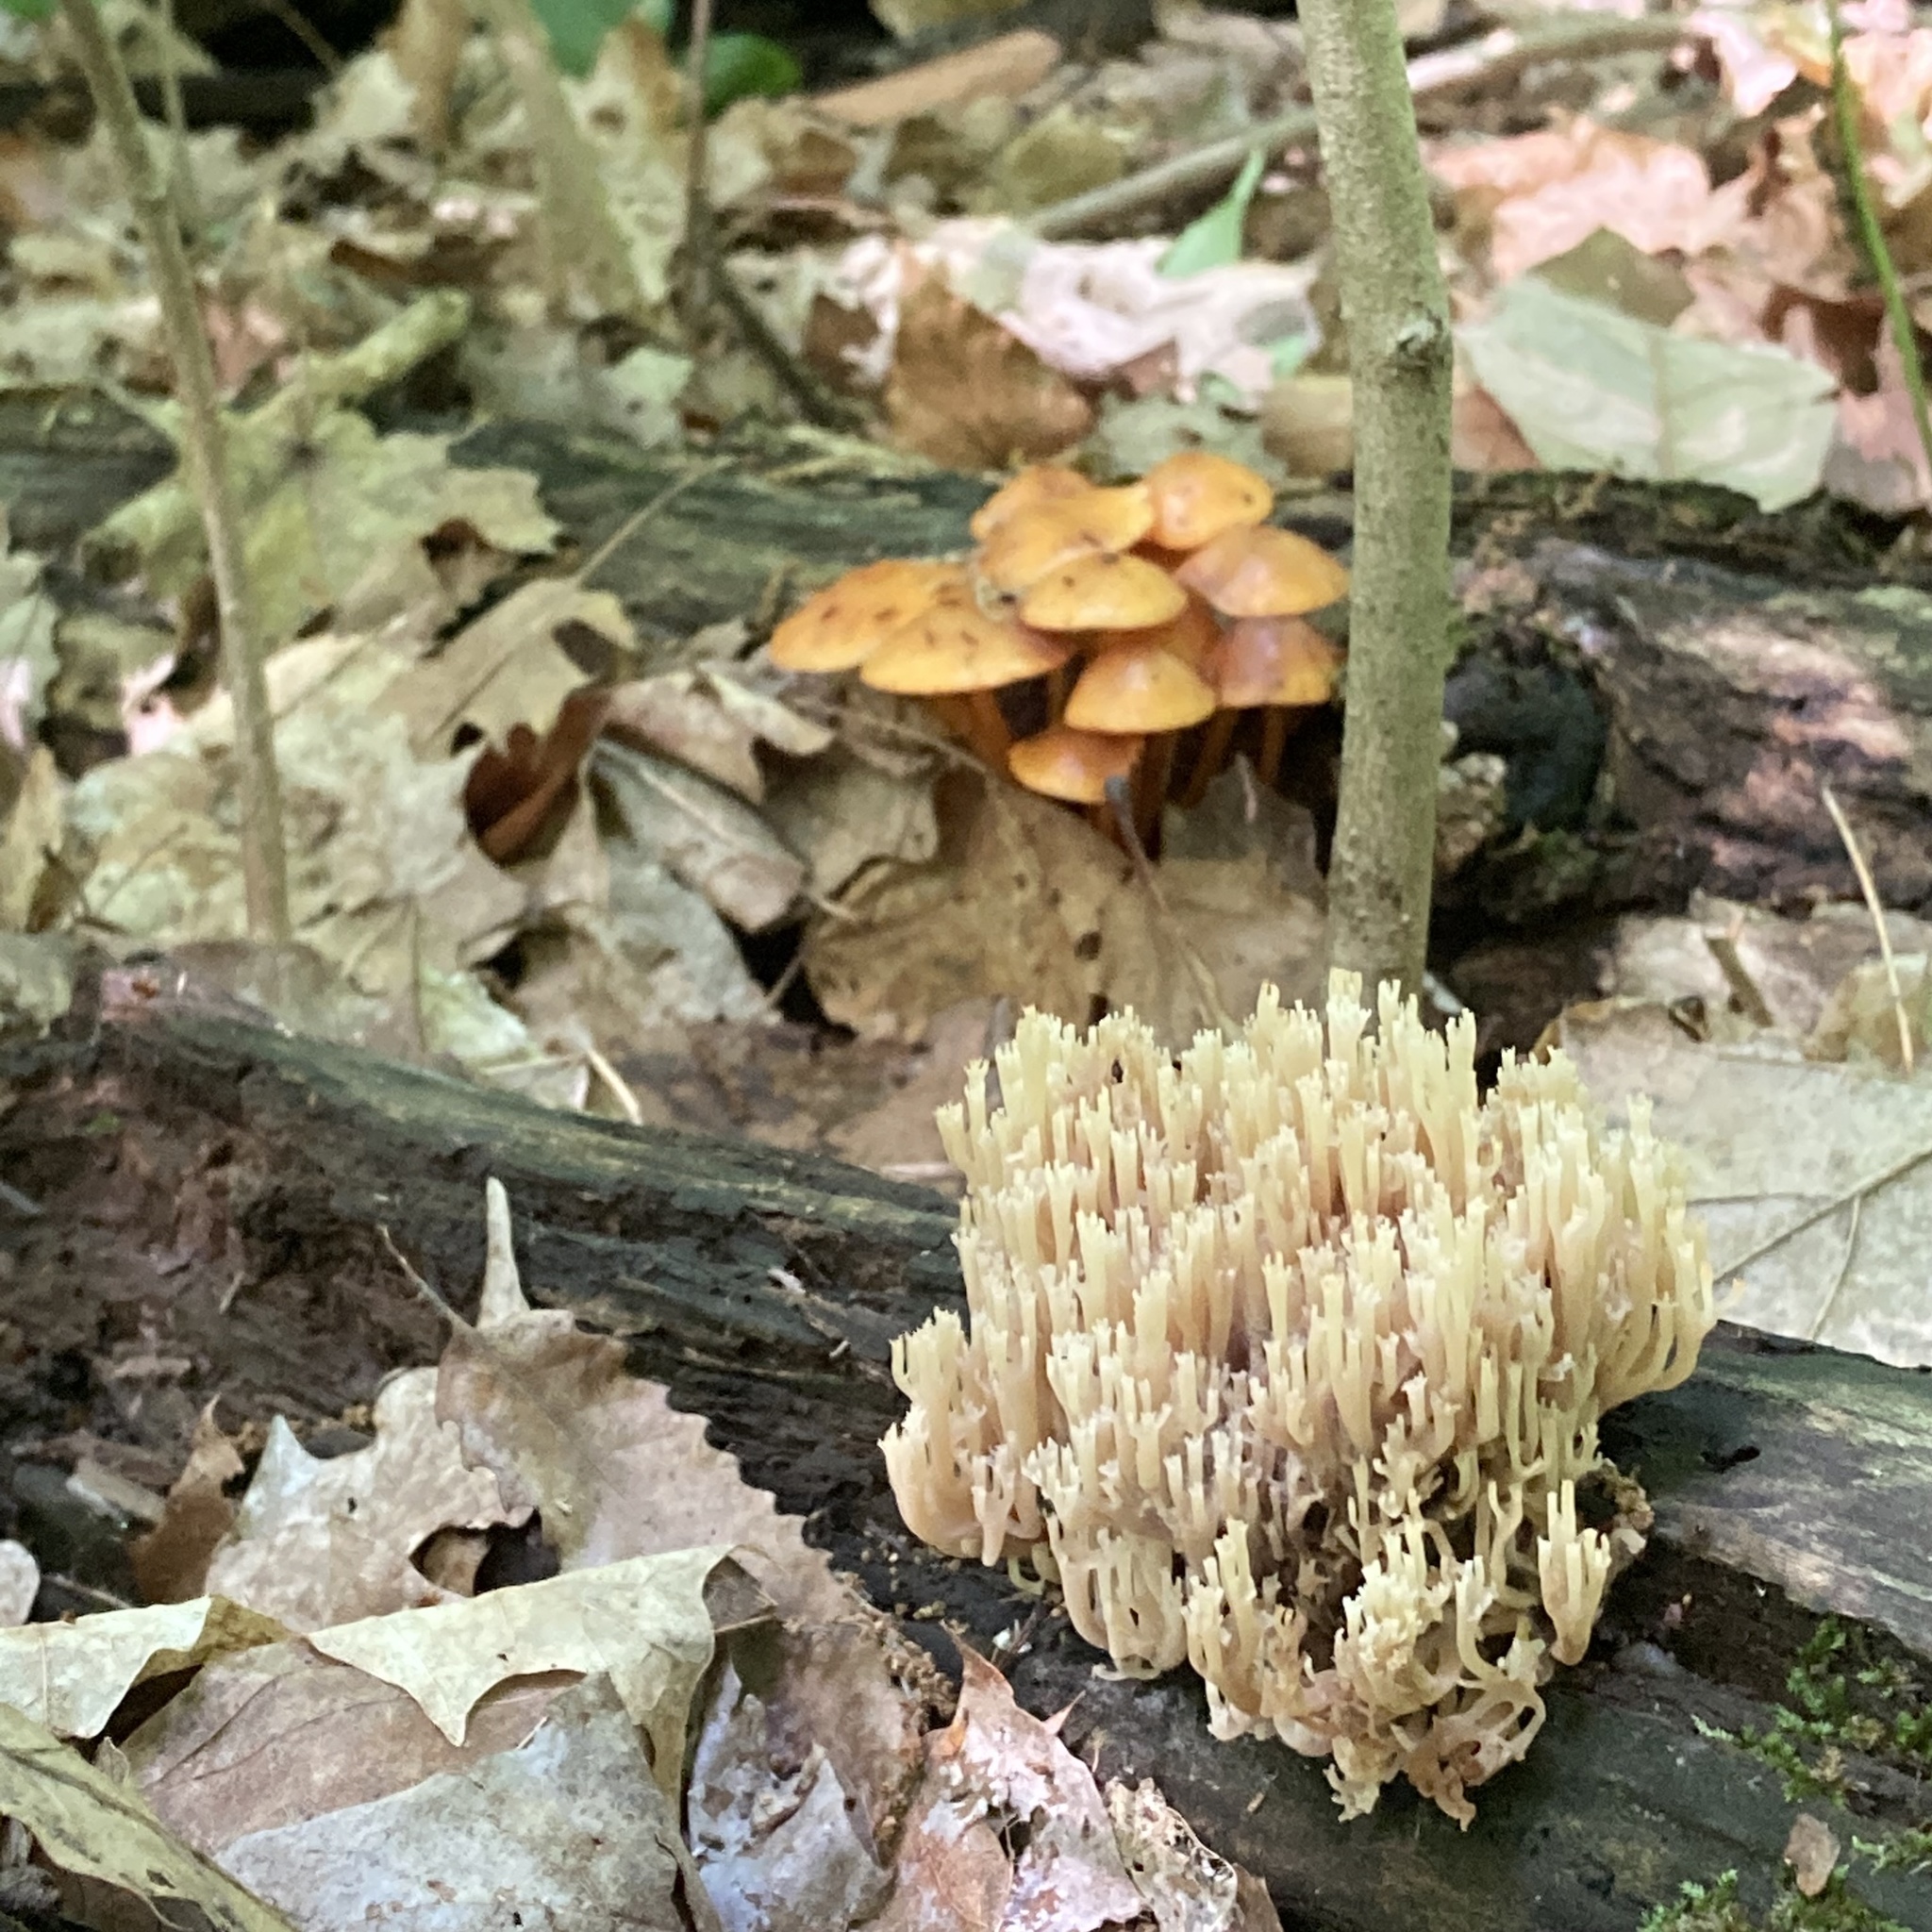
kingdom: Fungi
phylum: Basidiomycota
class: Agaricomycetes
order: Russulales
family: Auriscalpiaceae
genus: Artomyces
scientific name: Artomyces pyxidatus
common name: Crown-tipped coral fungus
